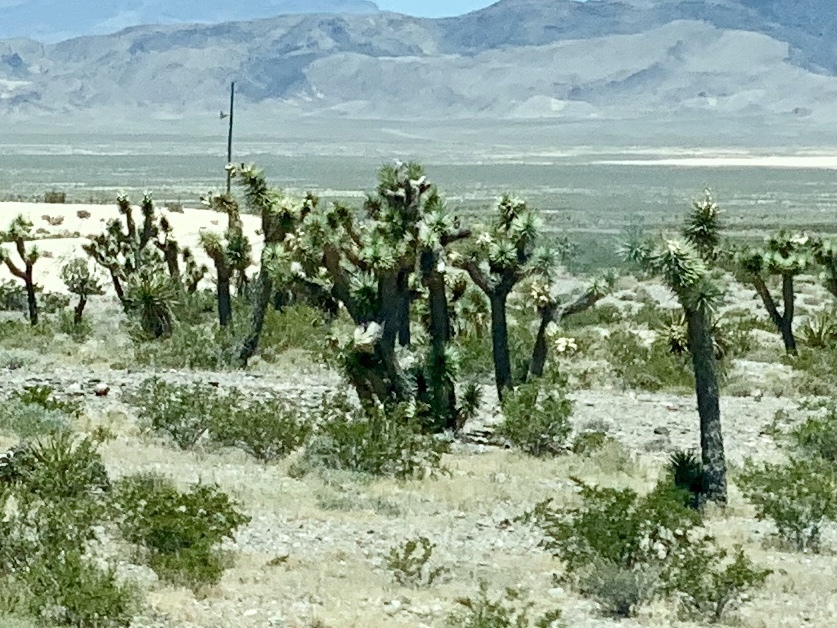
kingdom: Plantae
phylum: Tracheophyta
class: Liliopsida
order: Asparagales
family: Asparagaceae
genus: Yucca
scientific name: Yucca brevifolia
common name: Joshua tree
